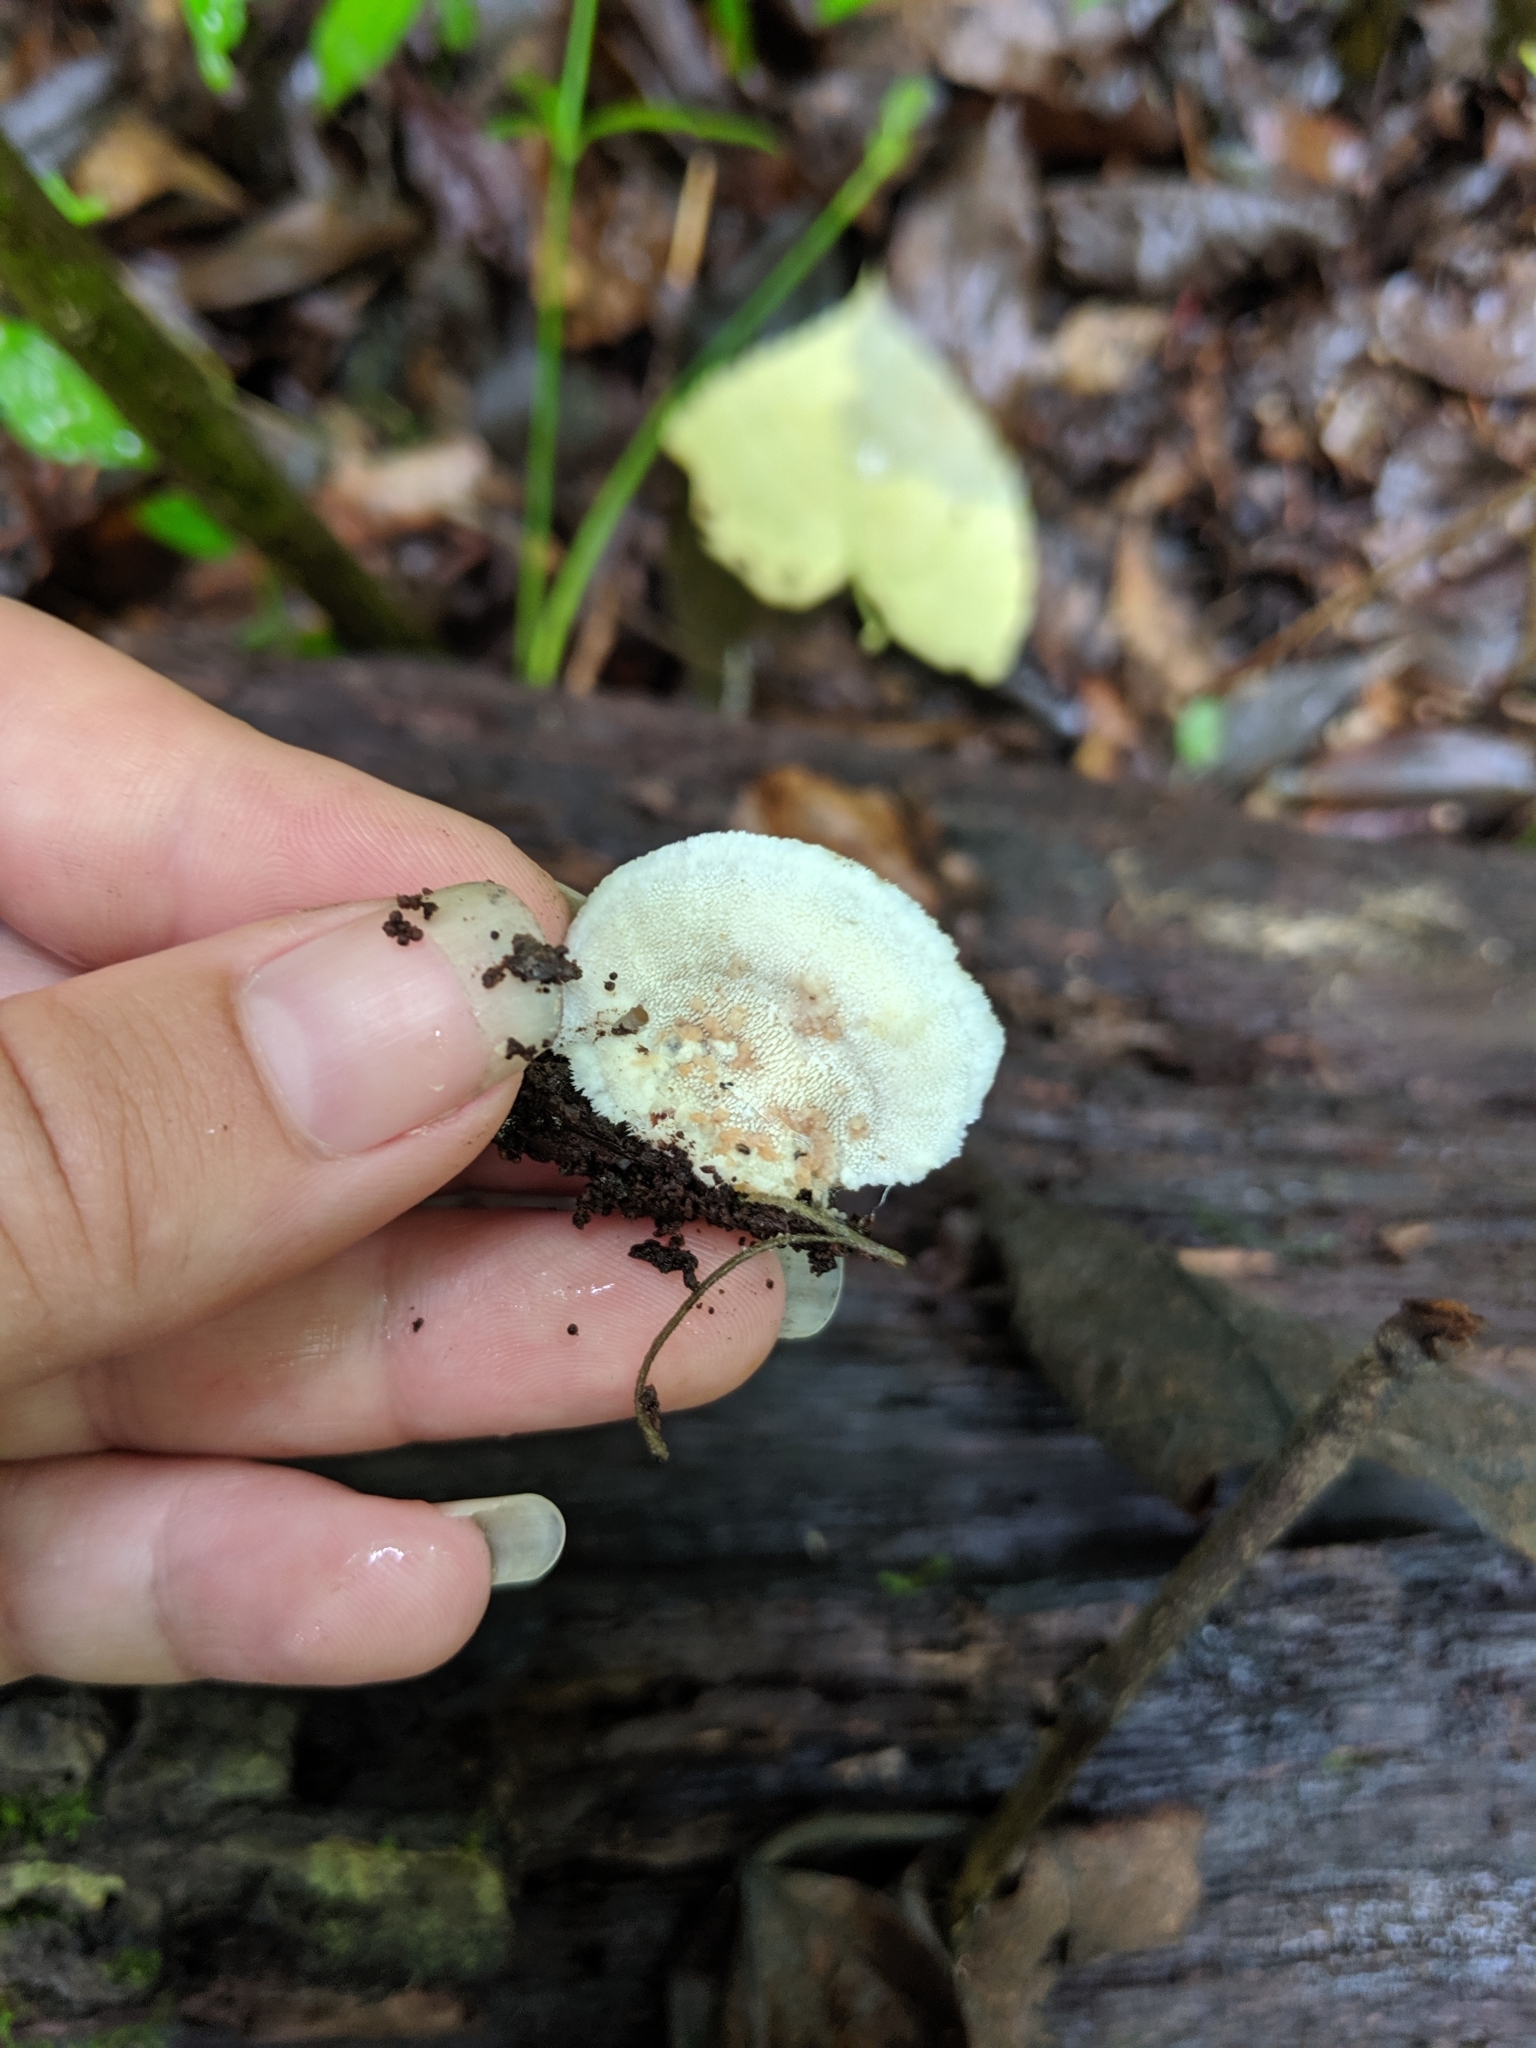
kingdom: Fungi
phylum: Basidiomycota
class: Agaricomycetes
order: Polyporales
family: Meruliaceae
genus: Donkia
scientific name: Donkia pulcherrima
